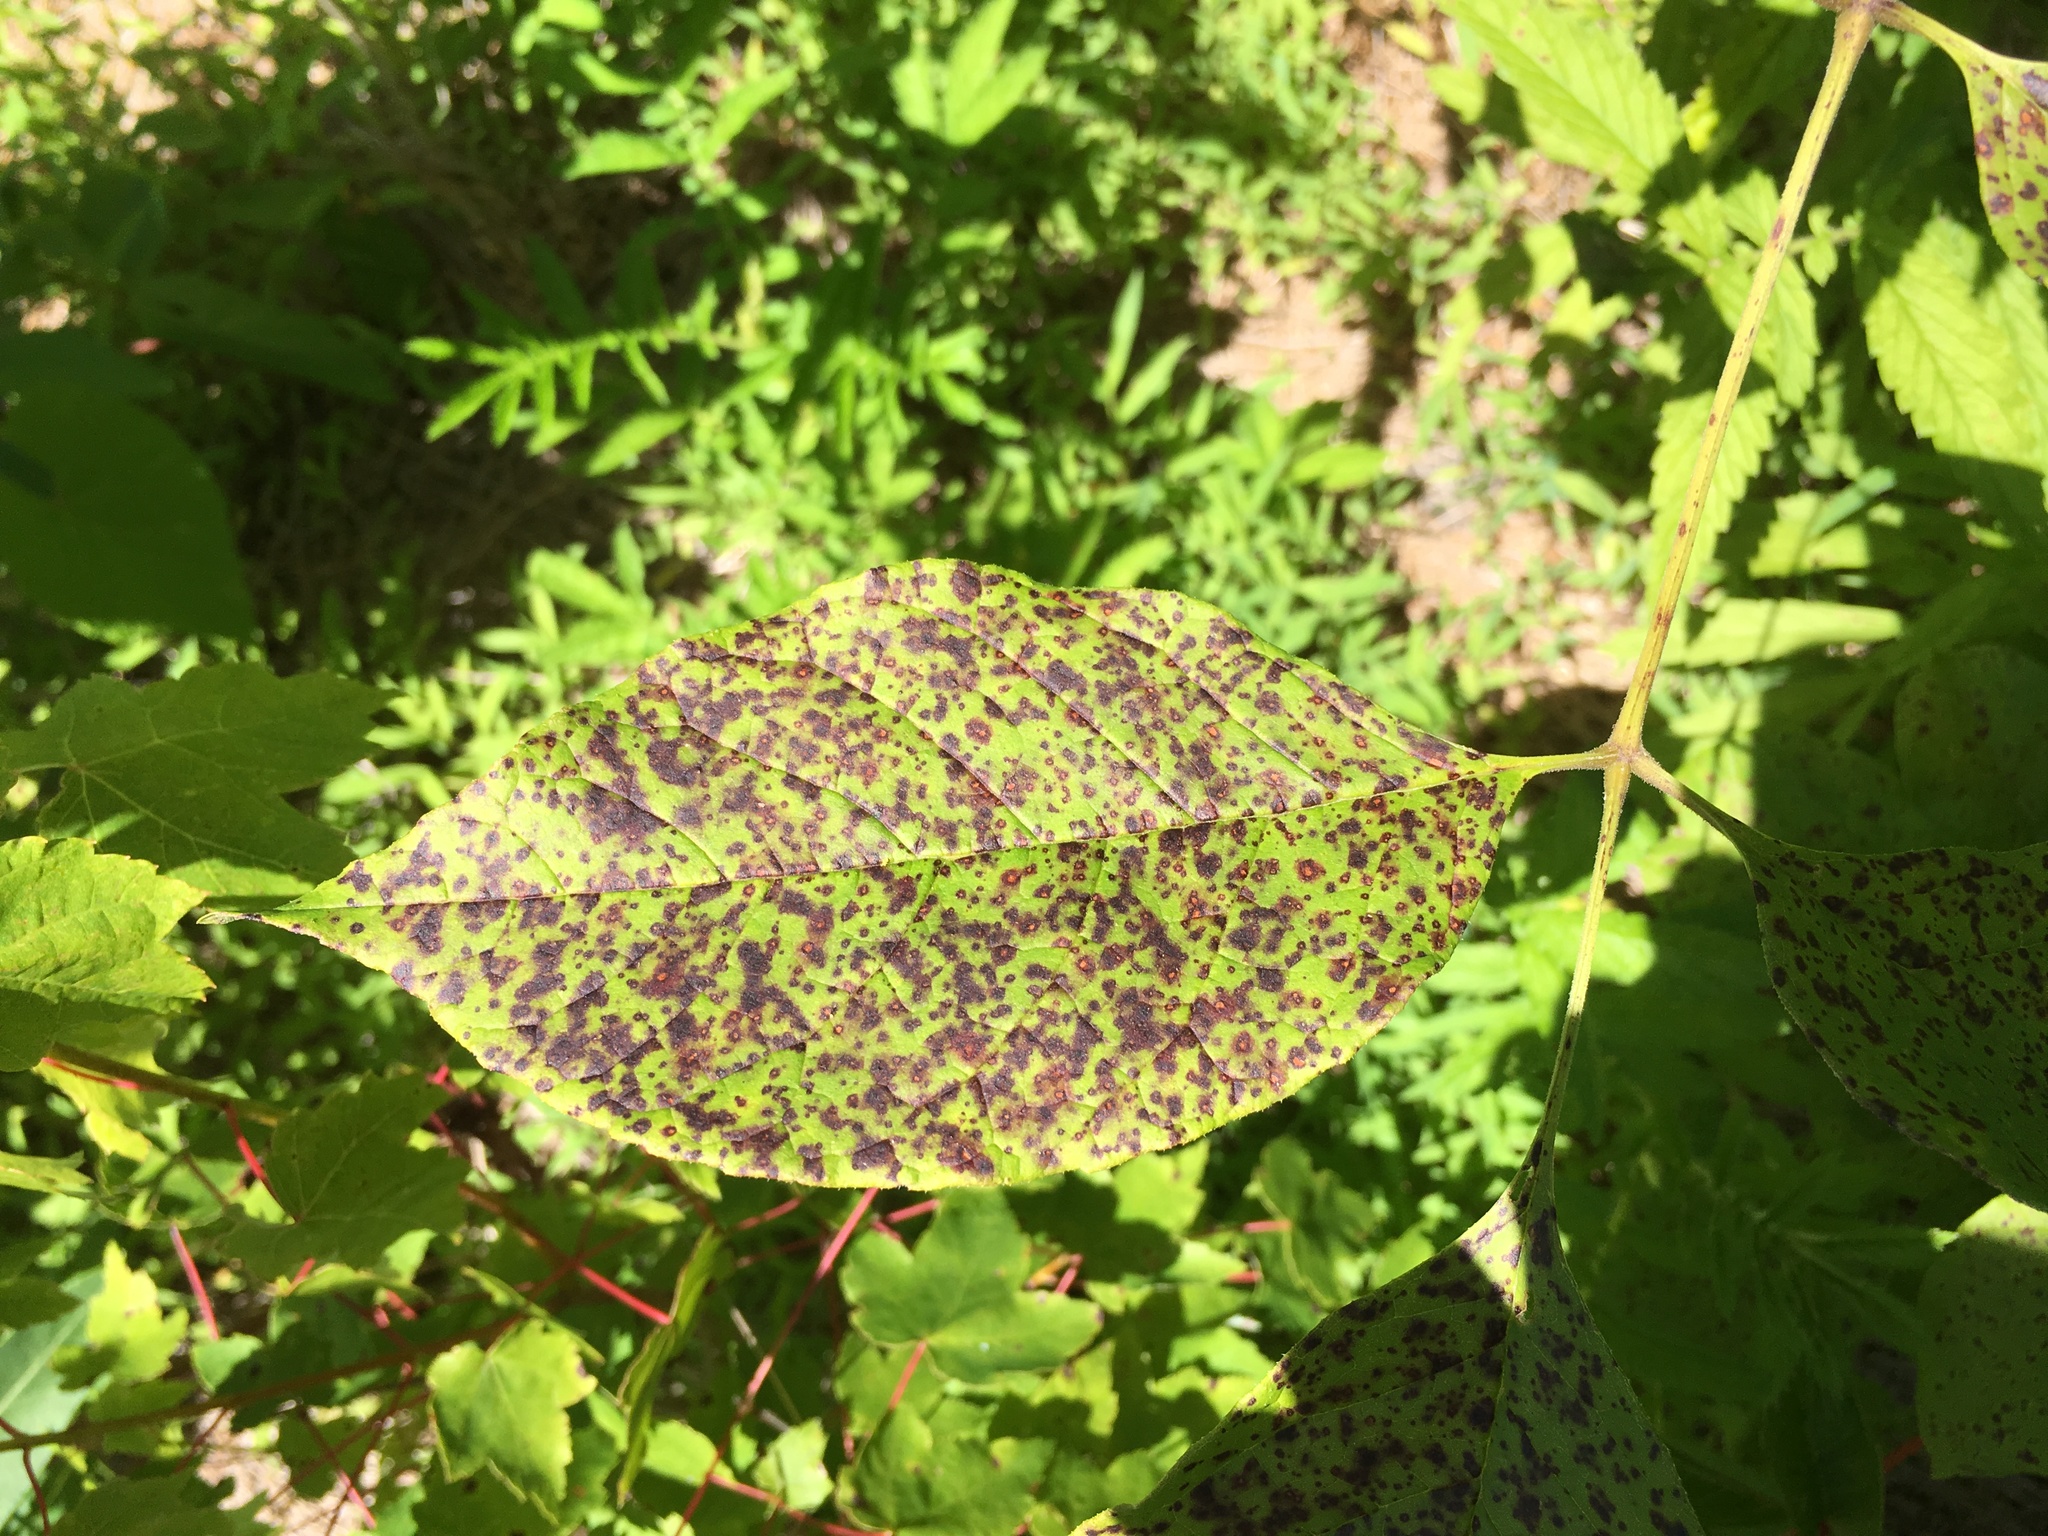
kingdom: Fungi
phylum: Ascomycota
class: Dothideomycetes
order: Mycosphaerellales
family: Mycosphaerellaceae
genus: Mycosphaerella
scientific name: Mycosphaerella effigurata
